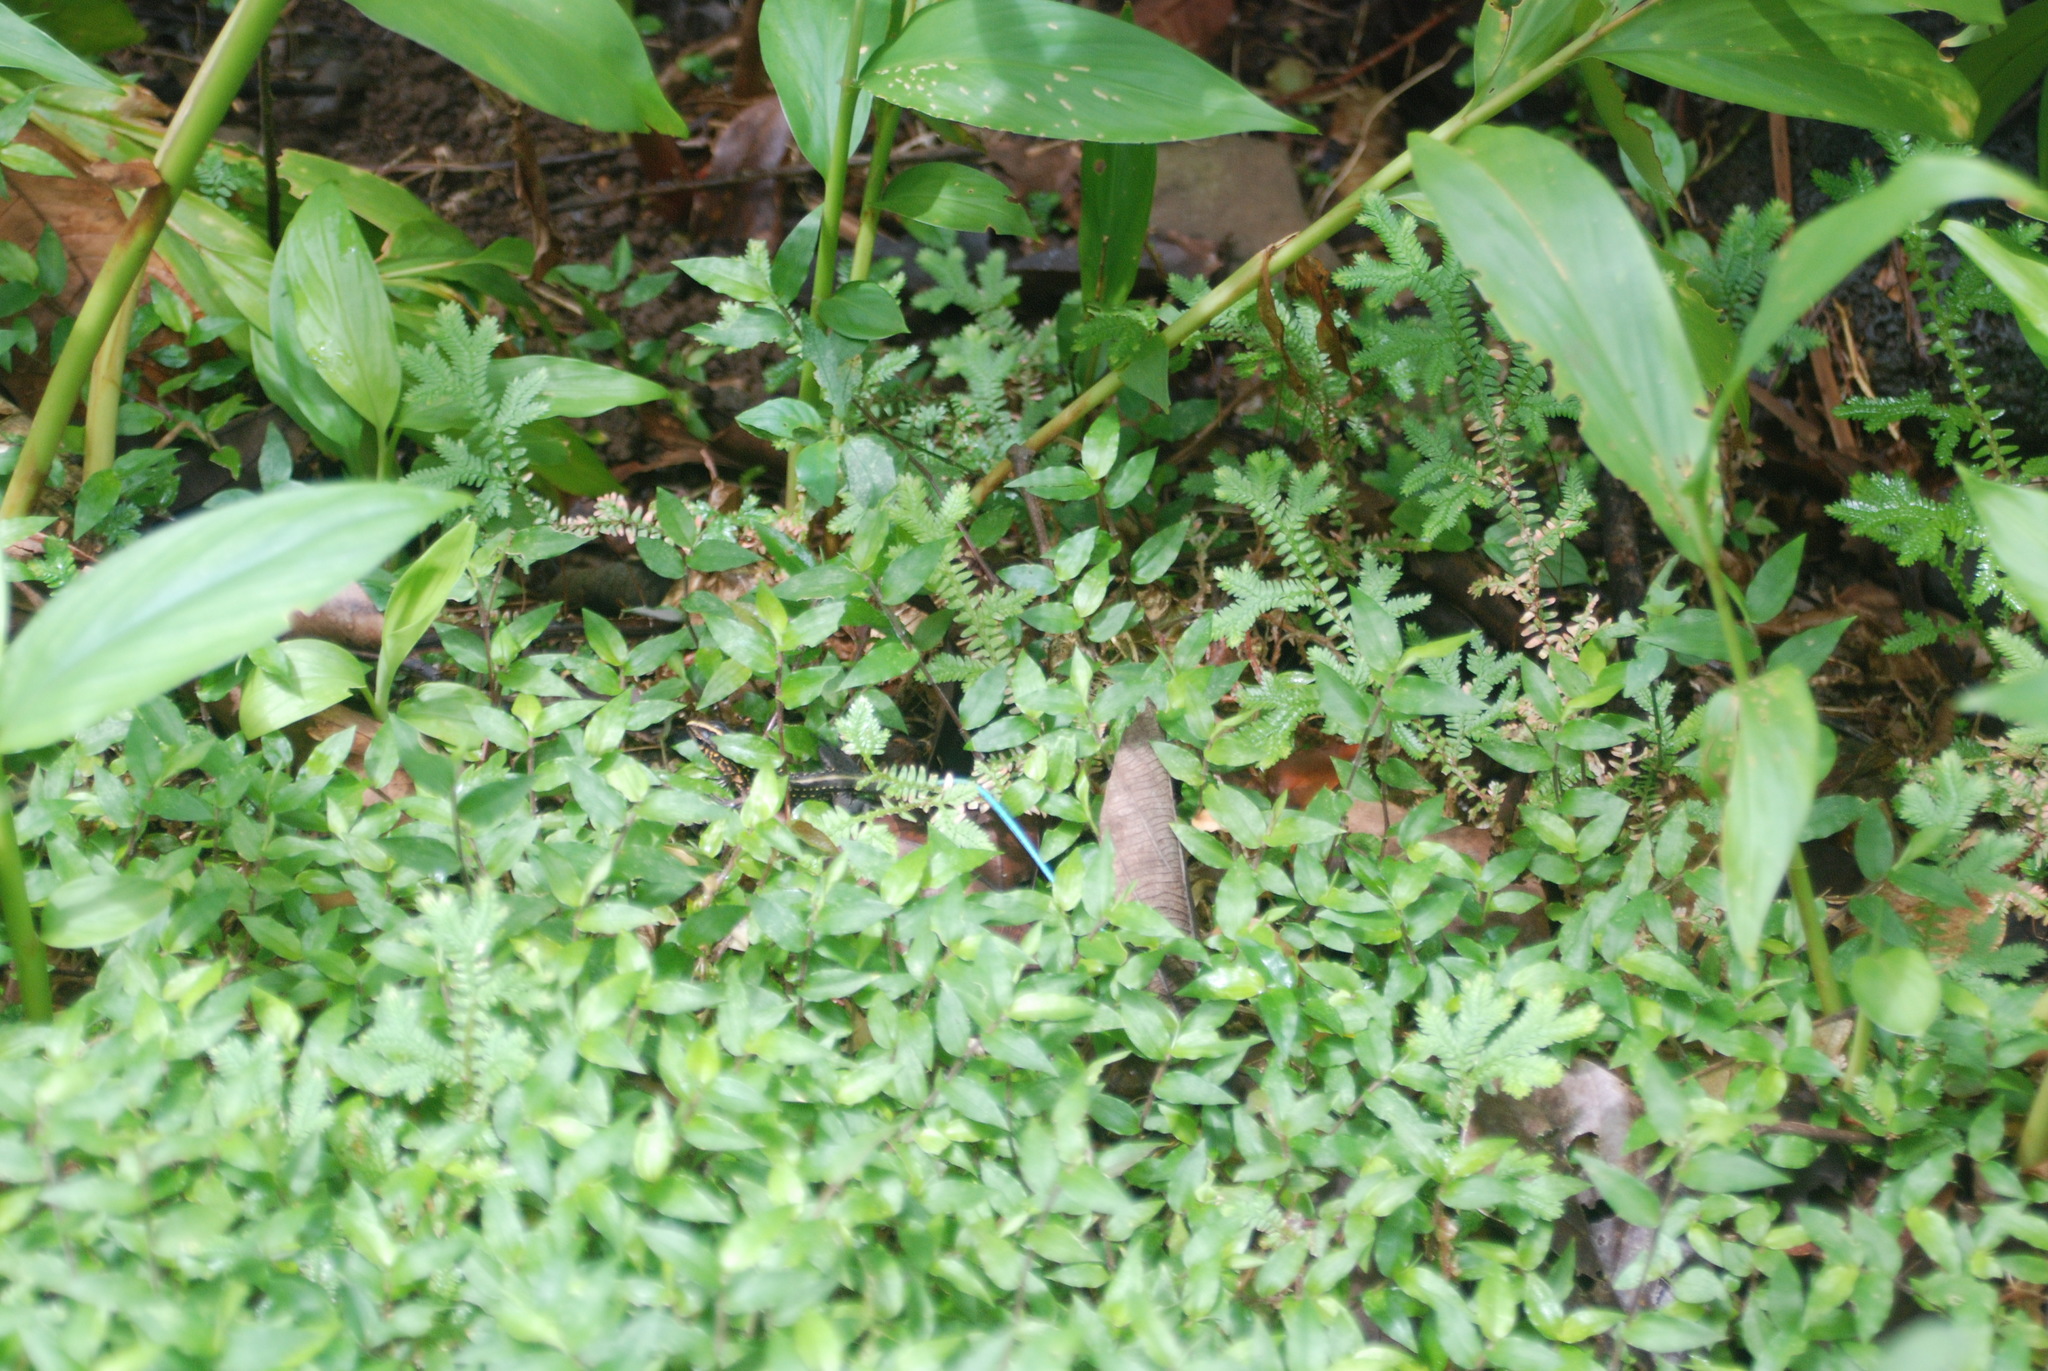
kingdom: Animalia
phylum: Chordata
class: Squamata
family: Teiidae
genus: Holcosus
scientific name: Holcosus festivus
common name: Middle american ameiva
